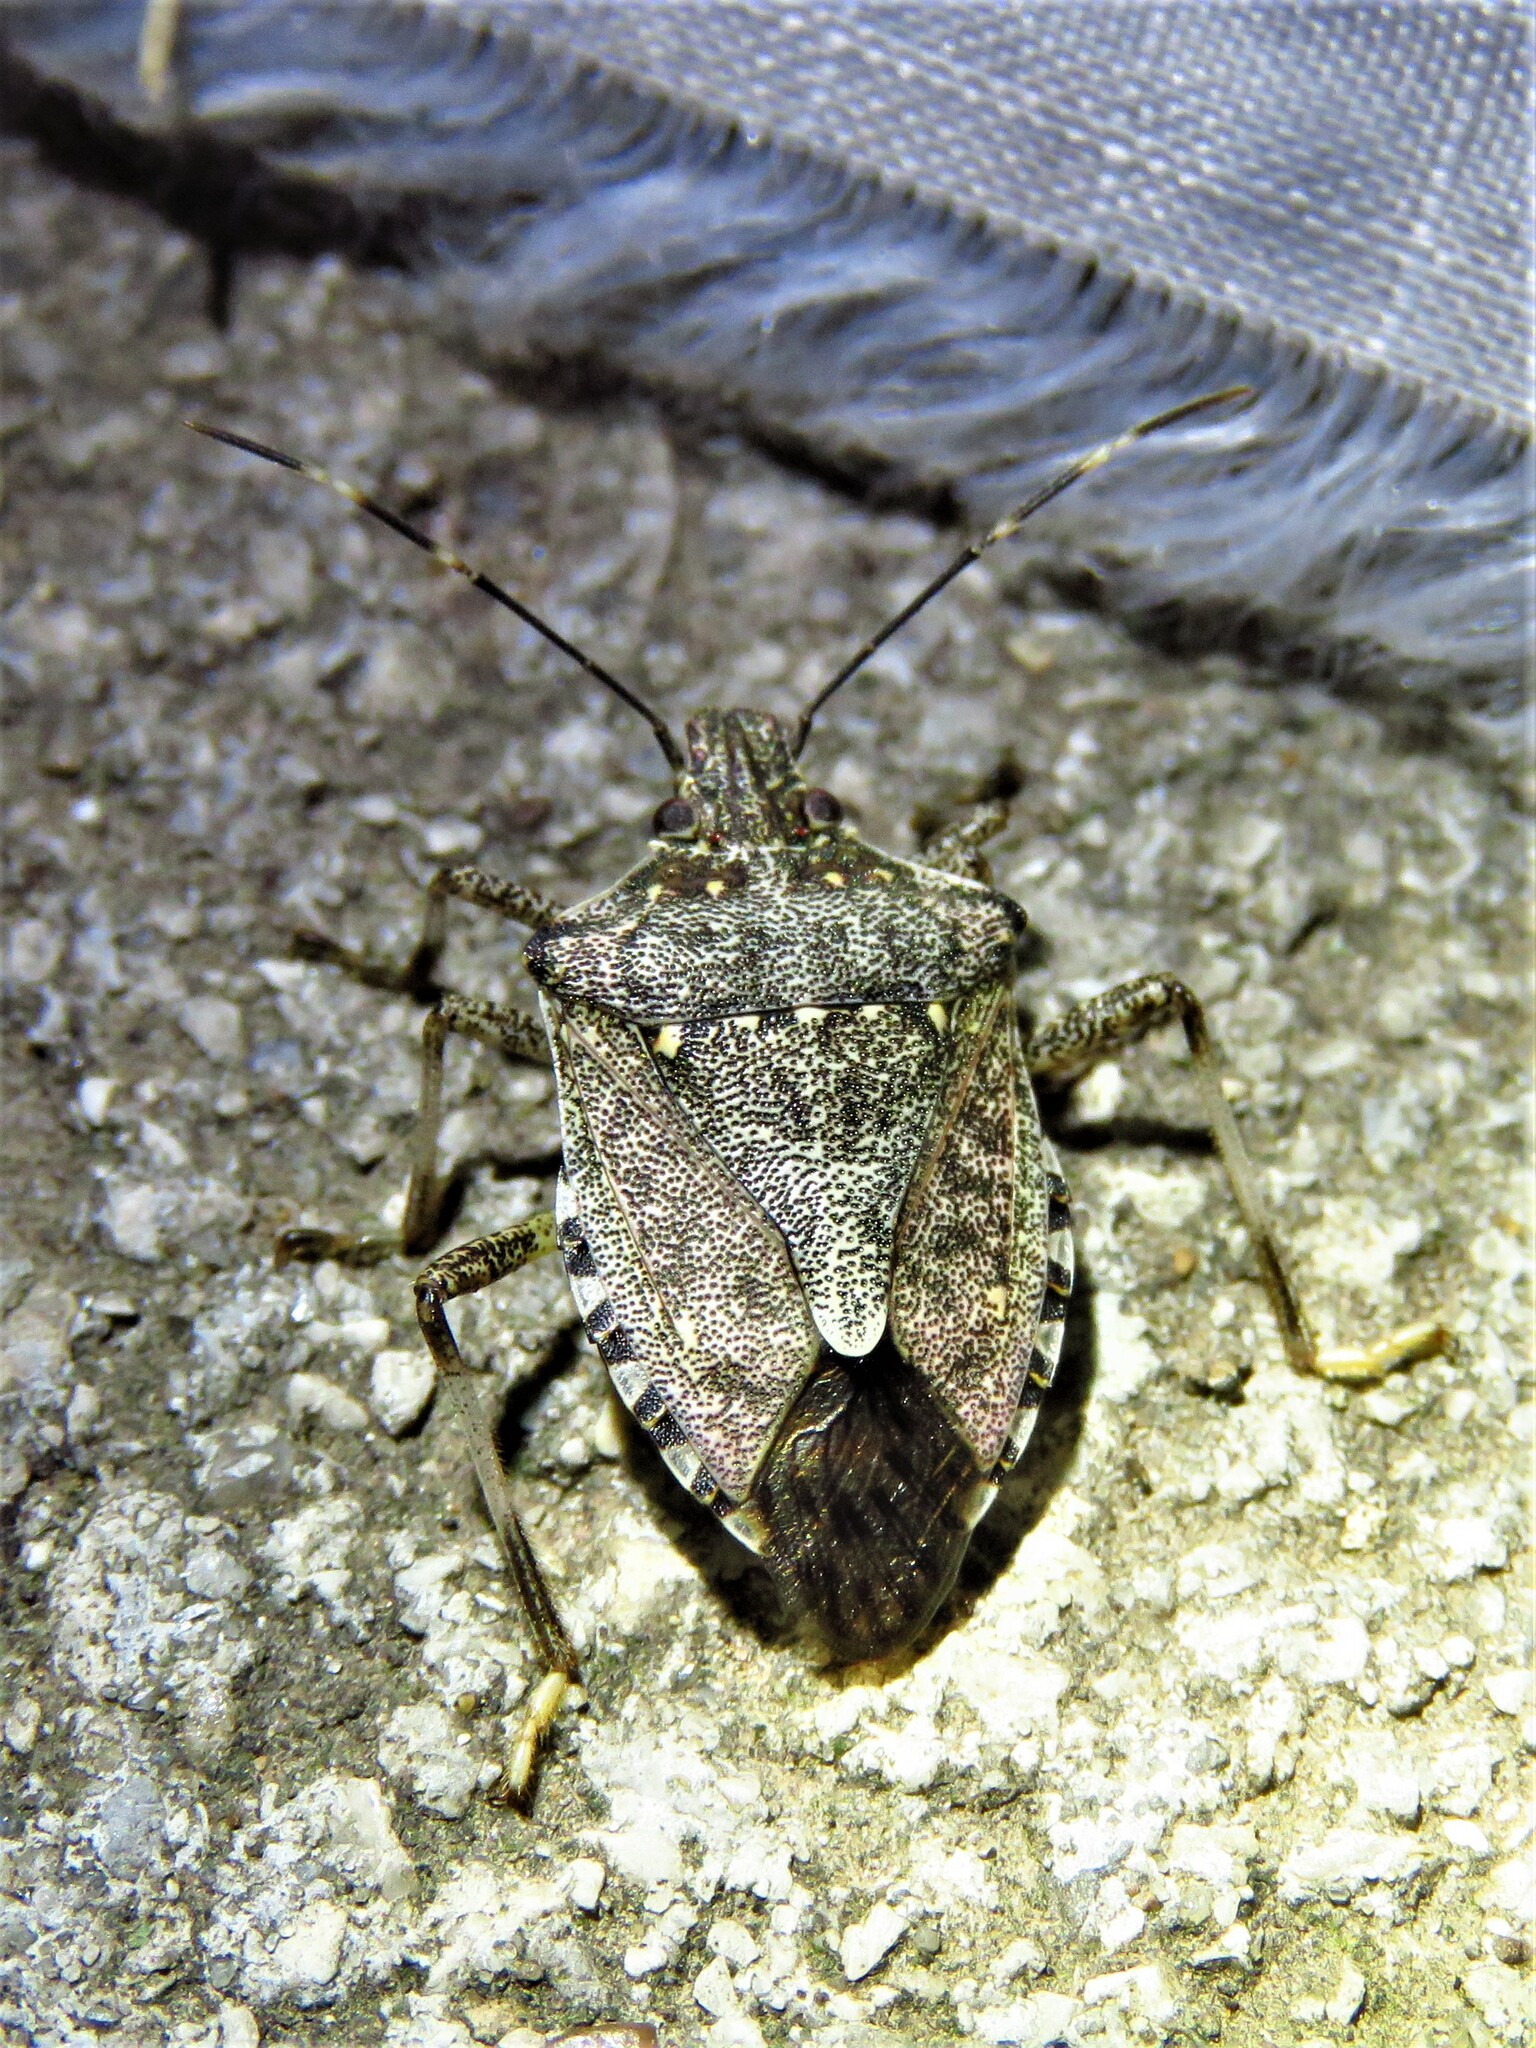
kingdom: Animalia
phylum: Arthropoda
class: Insecta
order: Hemiptera
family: Pentatomidae
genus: Halyomorpha
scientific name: Halyomorpha halys
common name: Brown marmorated stink bug
